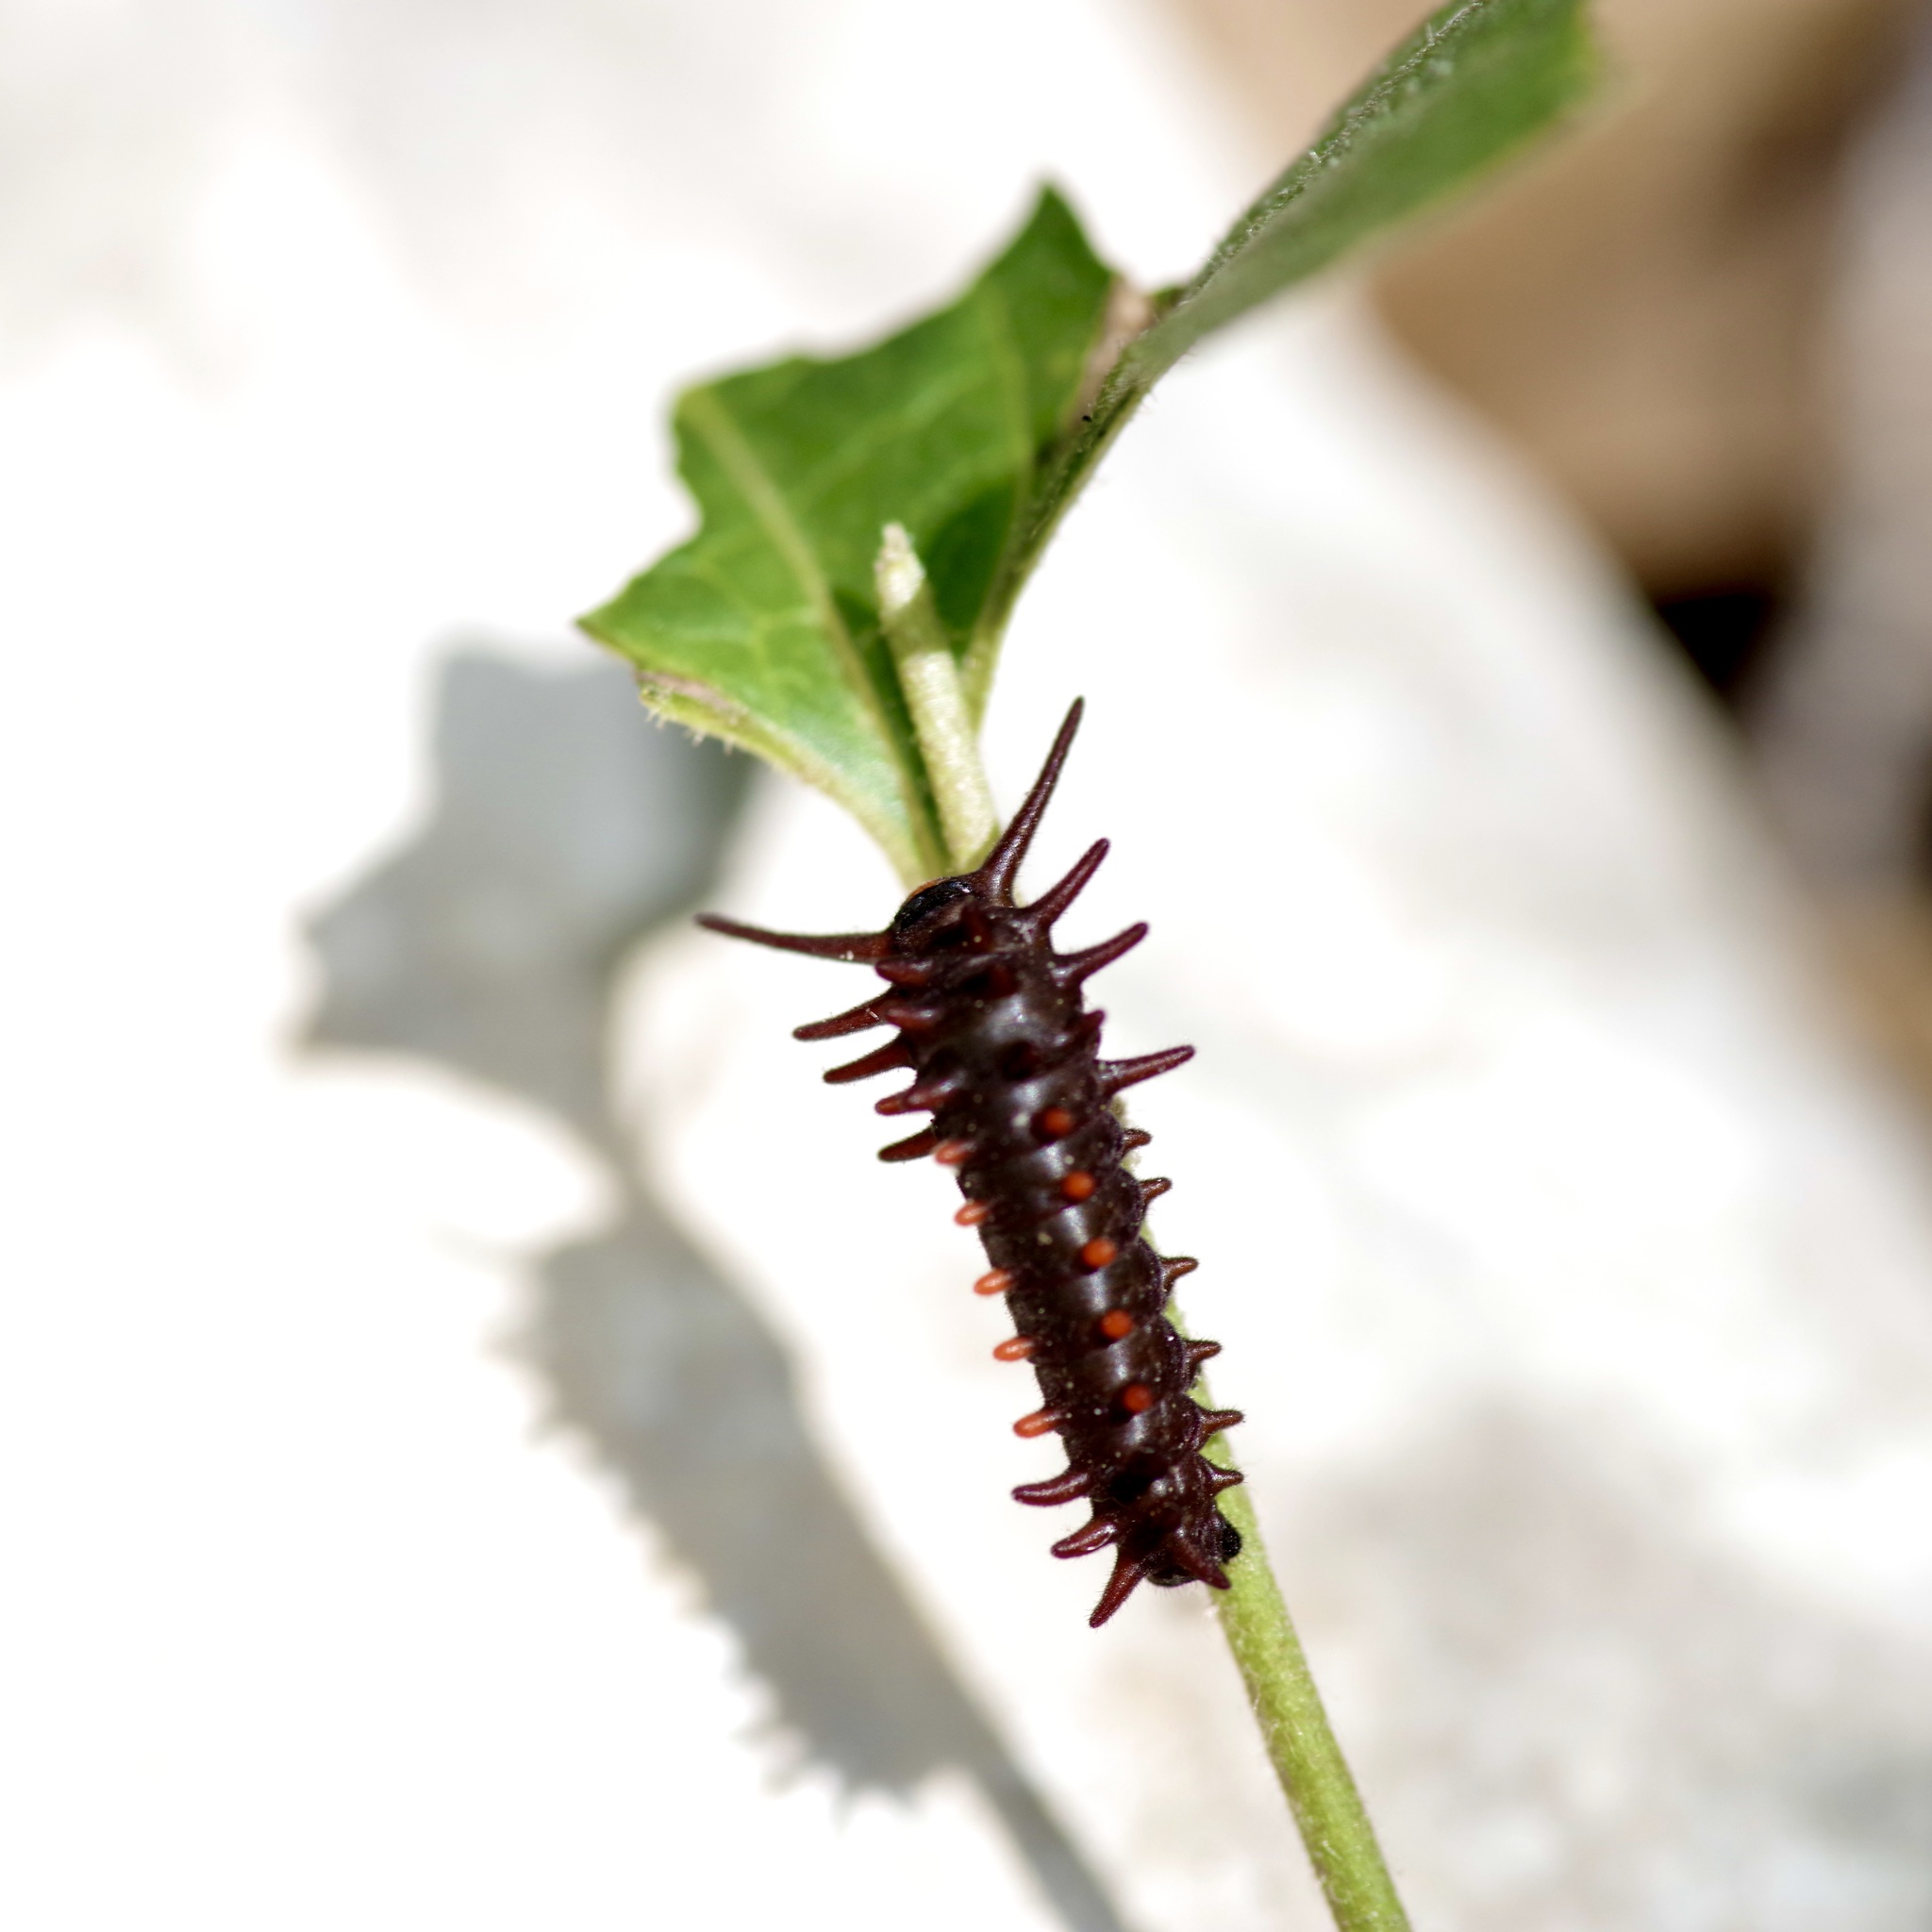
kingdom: Animalia
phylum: Arthropoda
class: Insecta
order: Lepidoptera
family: Papilionidae
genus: Battus
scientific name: Battus philenor
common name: Pipevine swallowtail
